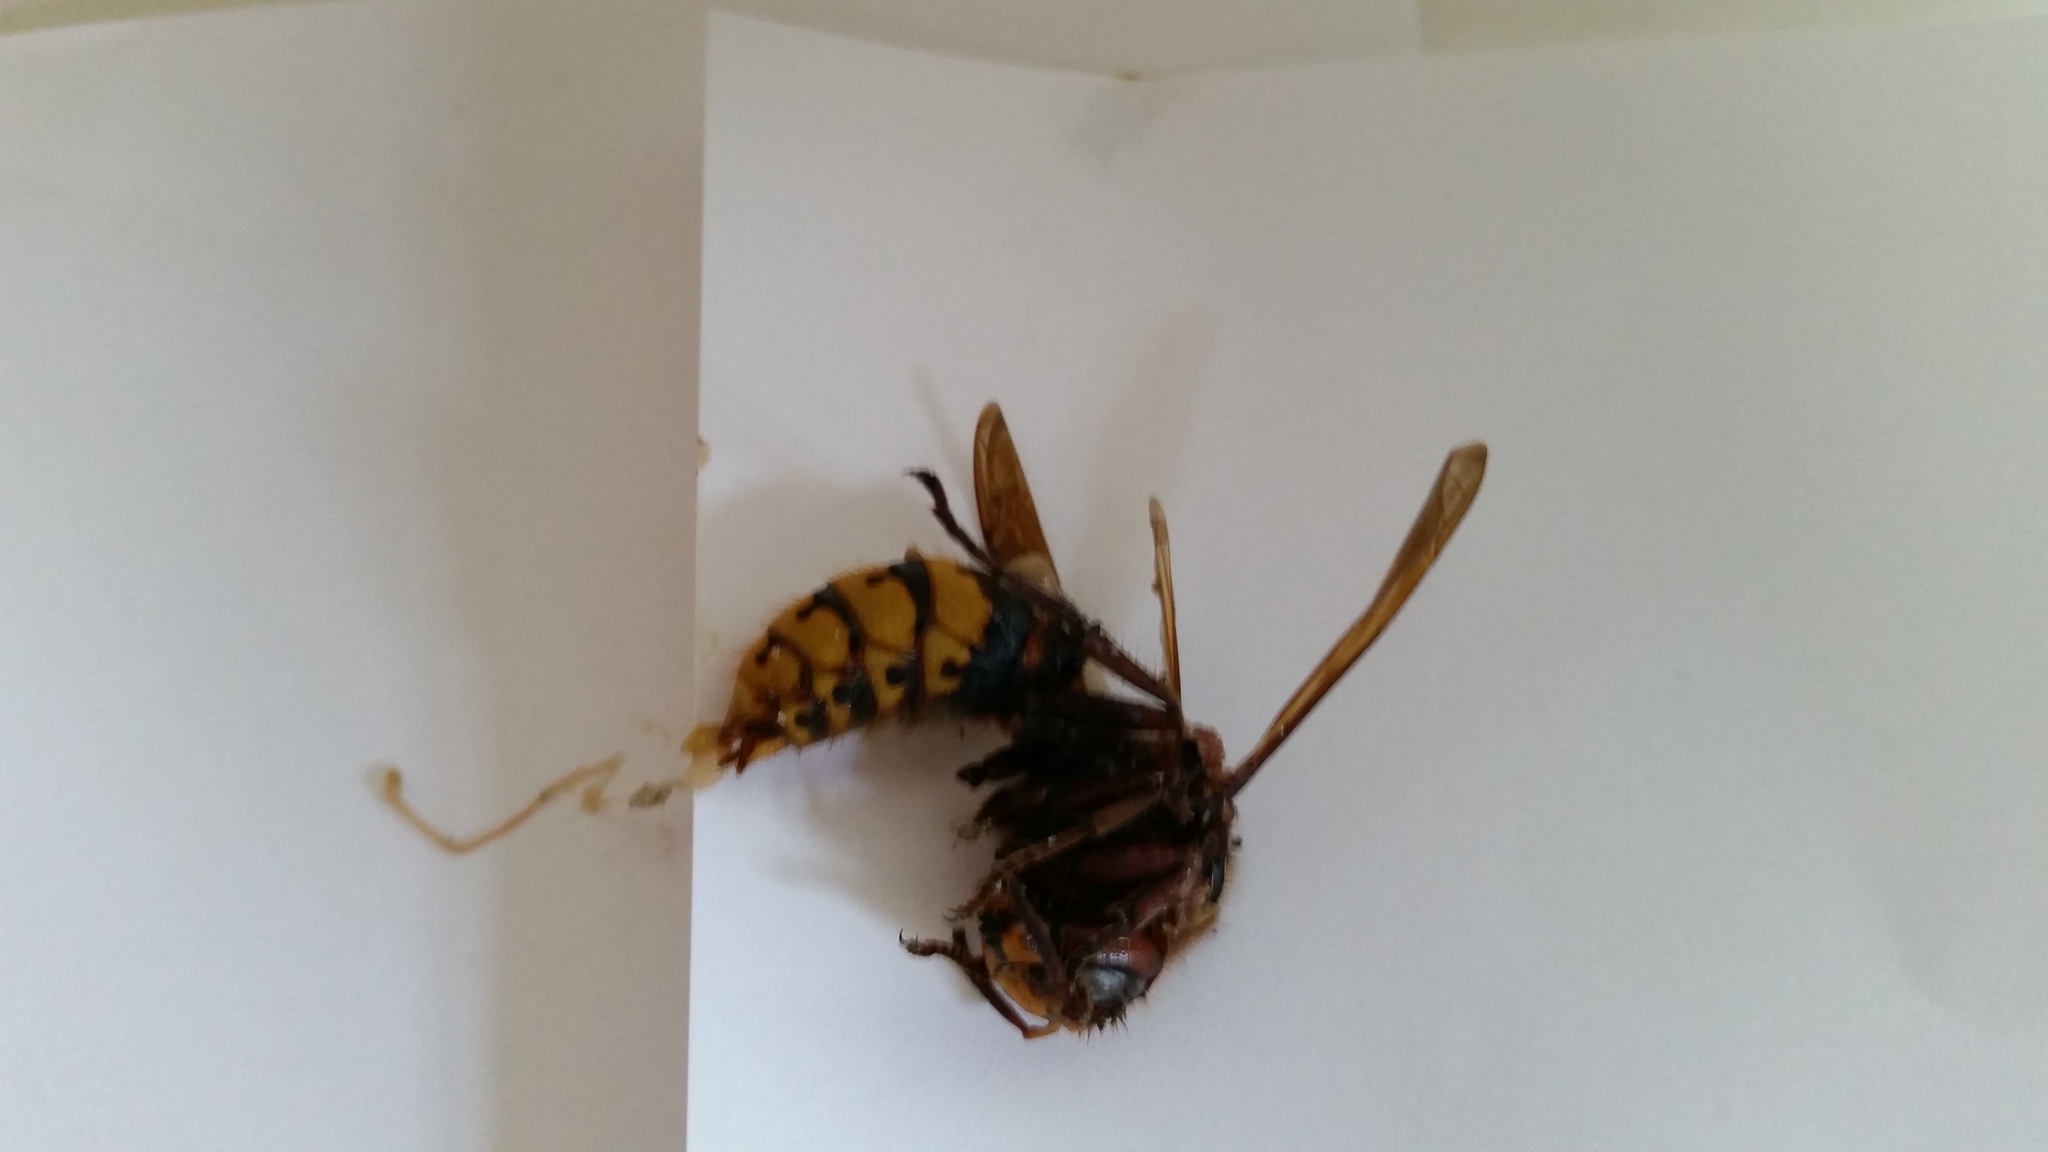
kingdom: Animalia
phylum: Arthropoda
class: Insecta
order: Hymenoptera
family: Vespidae
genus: Vespa
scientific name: Vespa crabro
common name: Hornet
